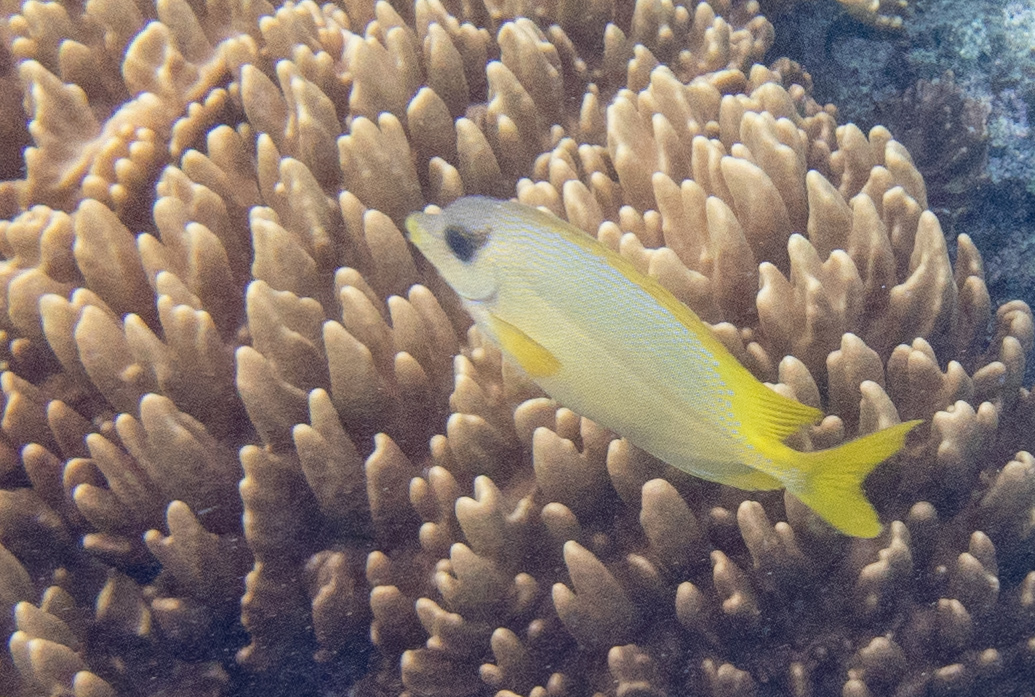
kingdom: Animalia
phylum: Chordata
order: Perciformes
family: Siganidae
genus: Siganus
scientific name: Siganus corallinus
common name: Coral rabbitfish
